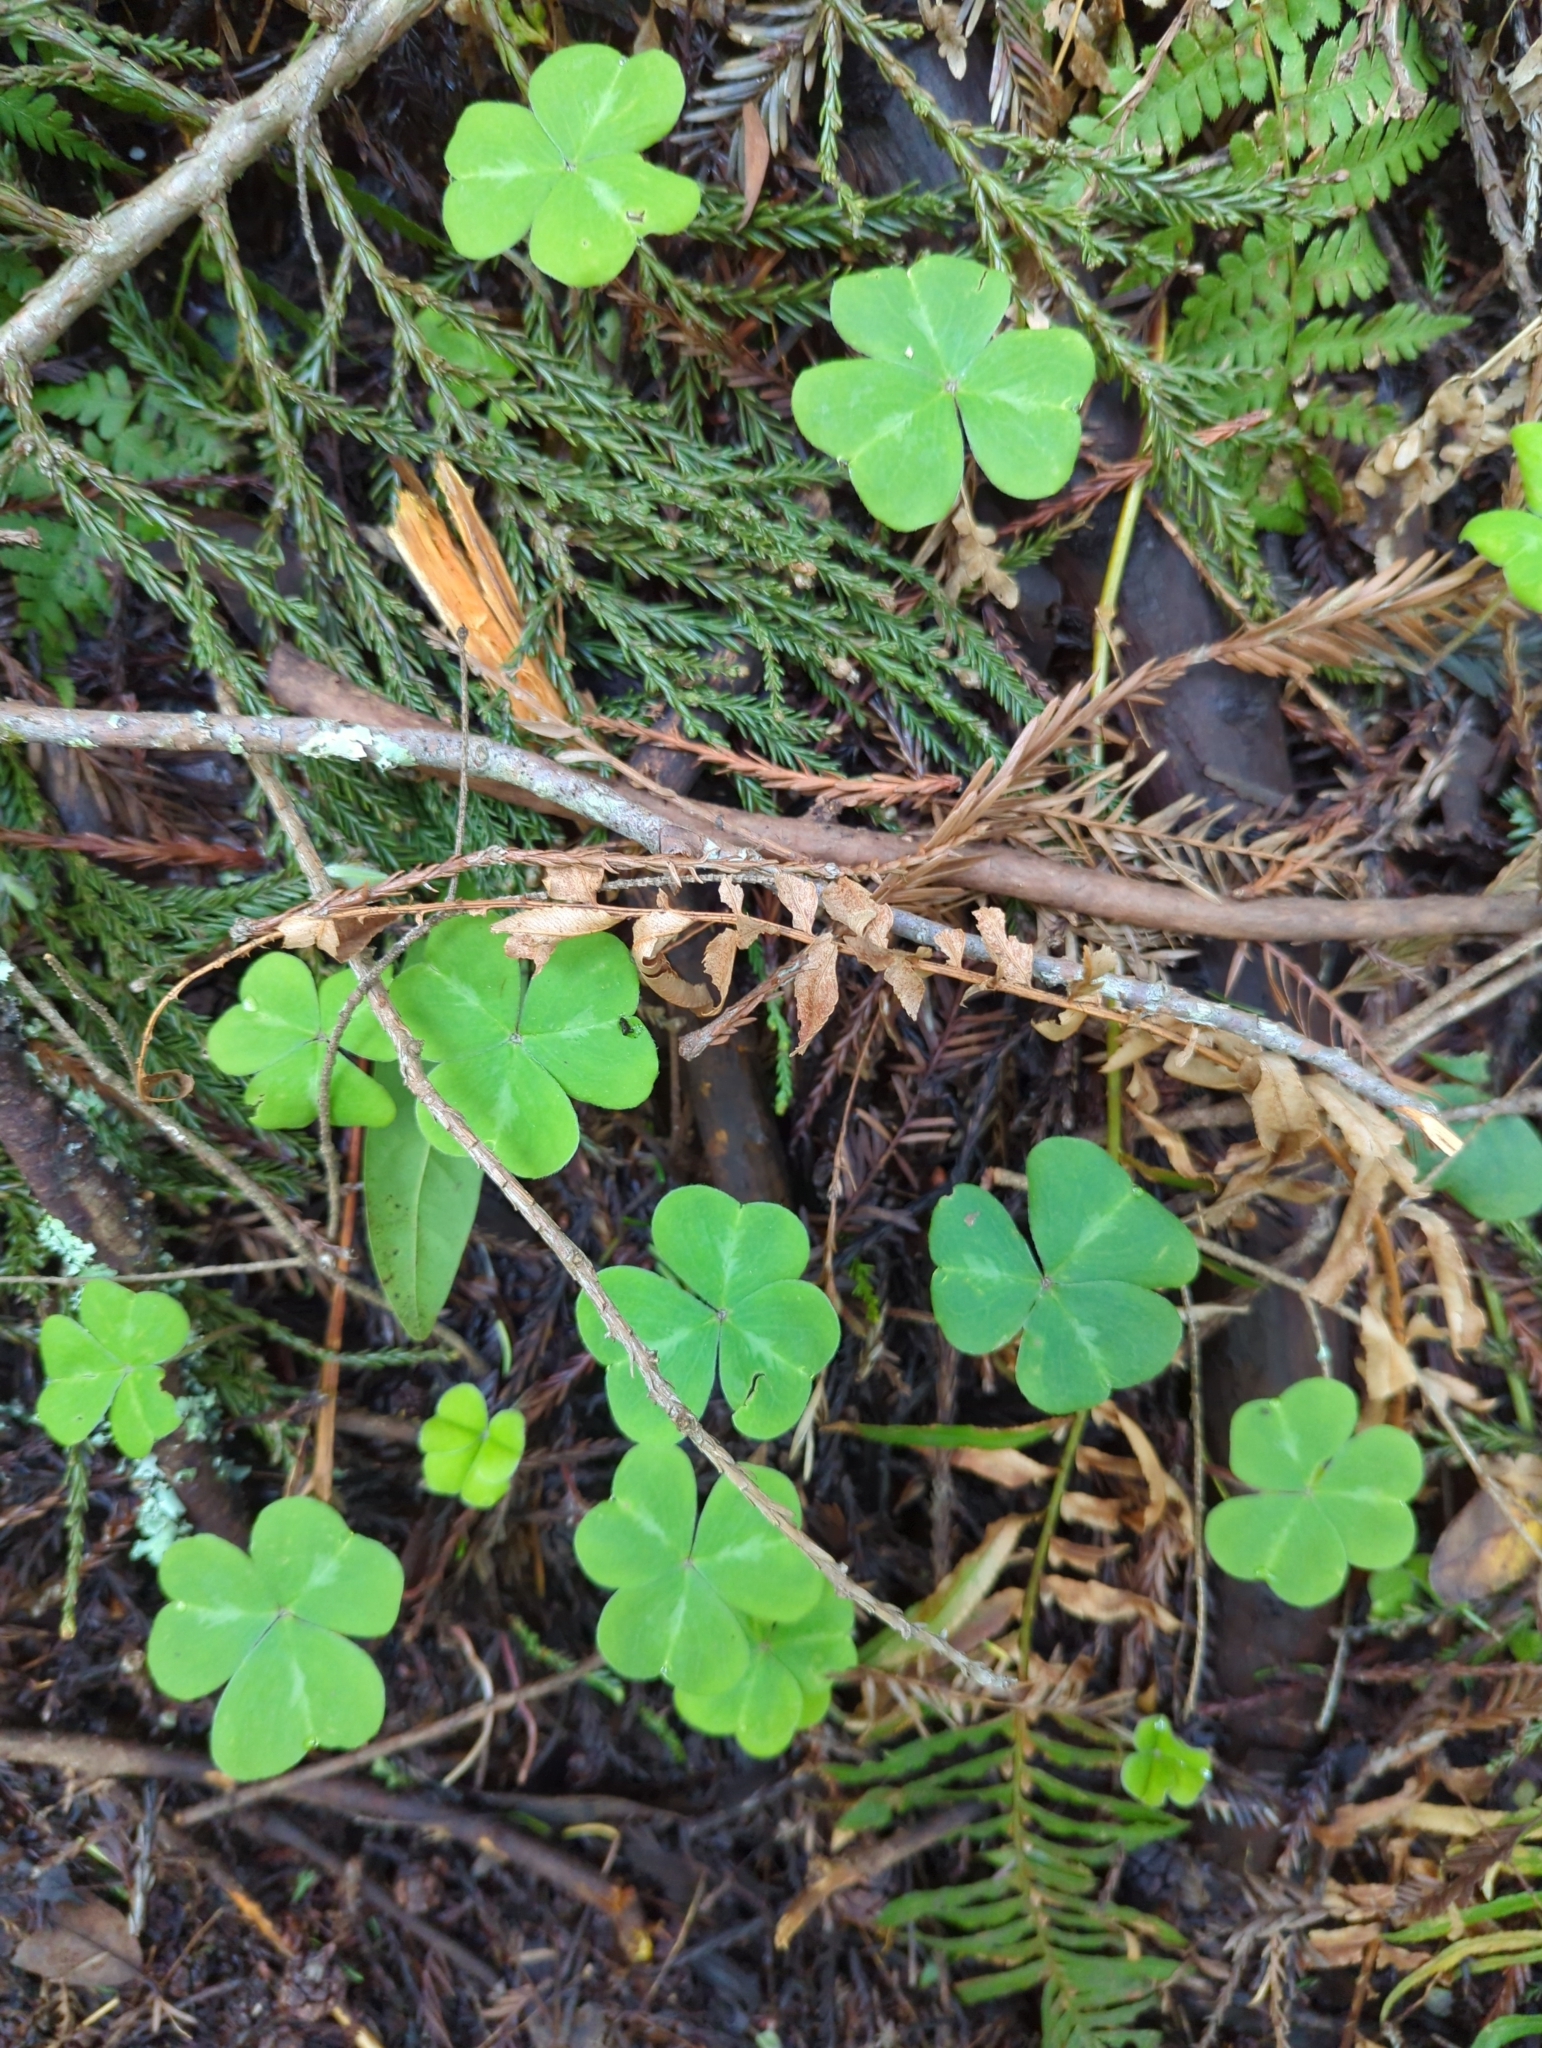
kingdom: Plantae
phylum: Tracheophyta
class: Magnoliopsida
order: Oxalidales
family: Oxalidaceae
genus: Oxalis
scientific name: Oxalis oregana
